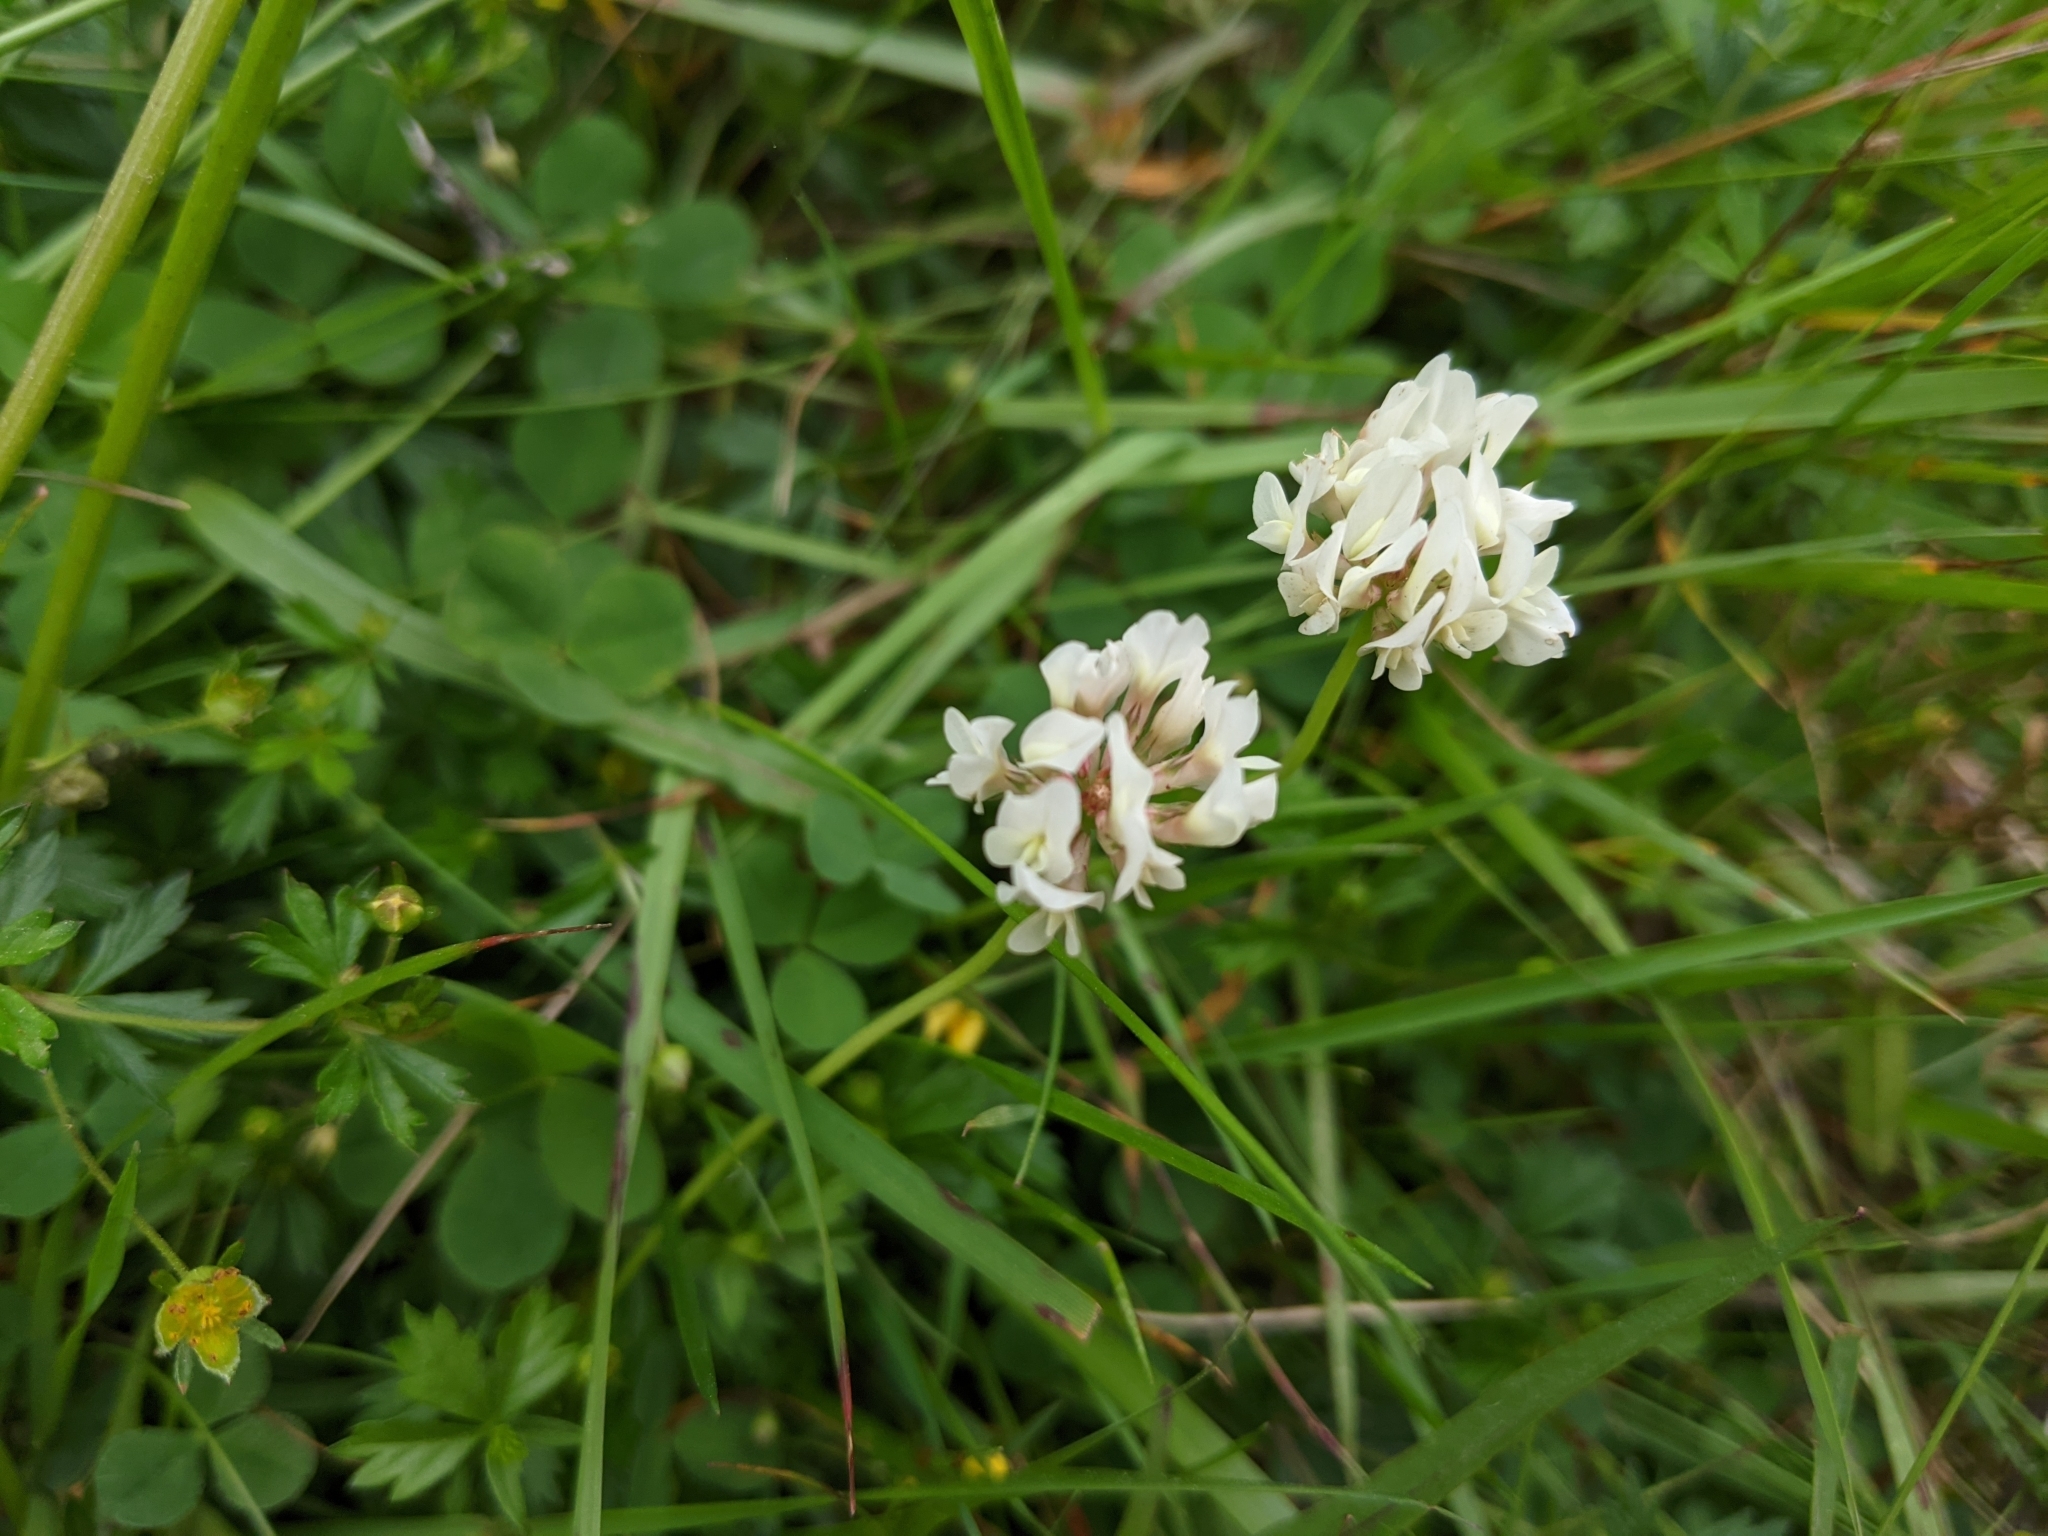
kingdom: Plantae
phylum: Tracheophyta
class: Magnoliopsida
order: Fabales
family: Fabaceae
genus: Trifolium
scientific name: Trifolium repens
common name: White clover
